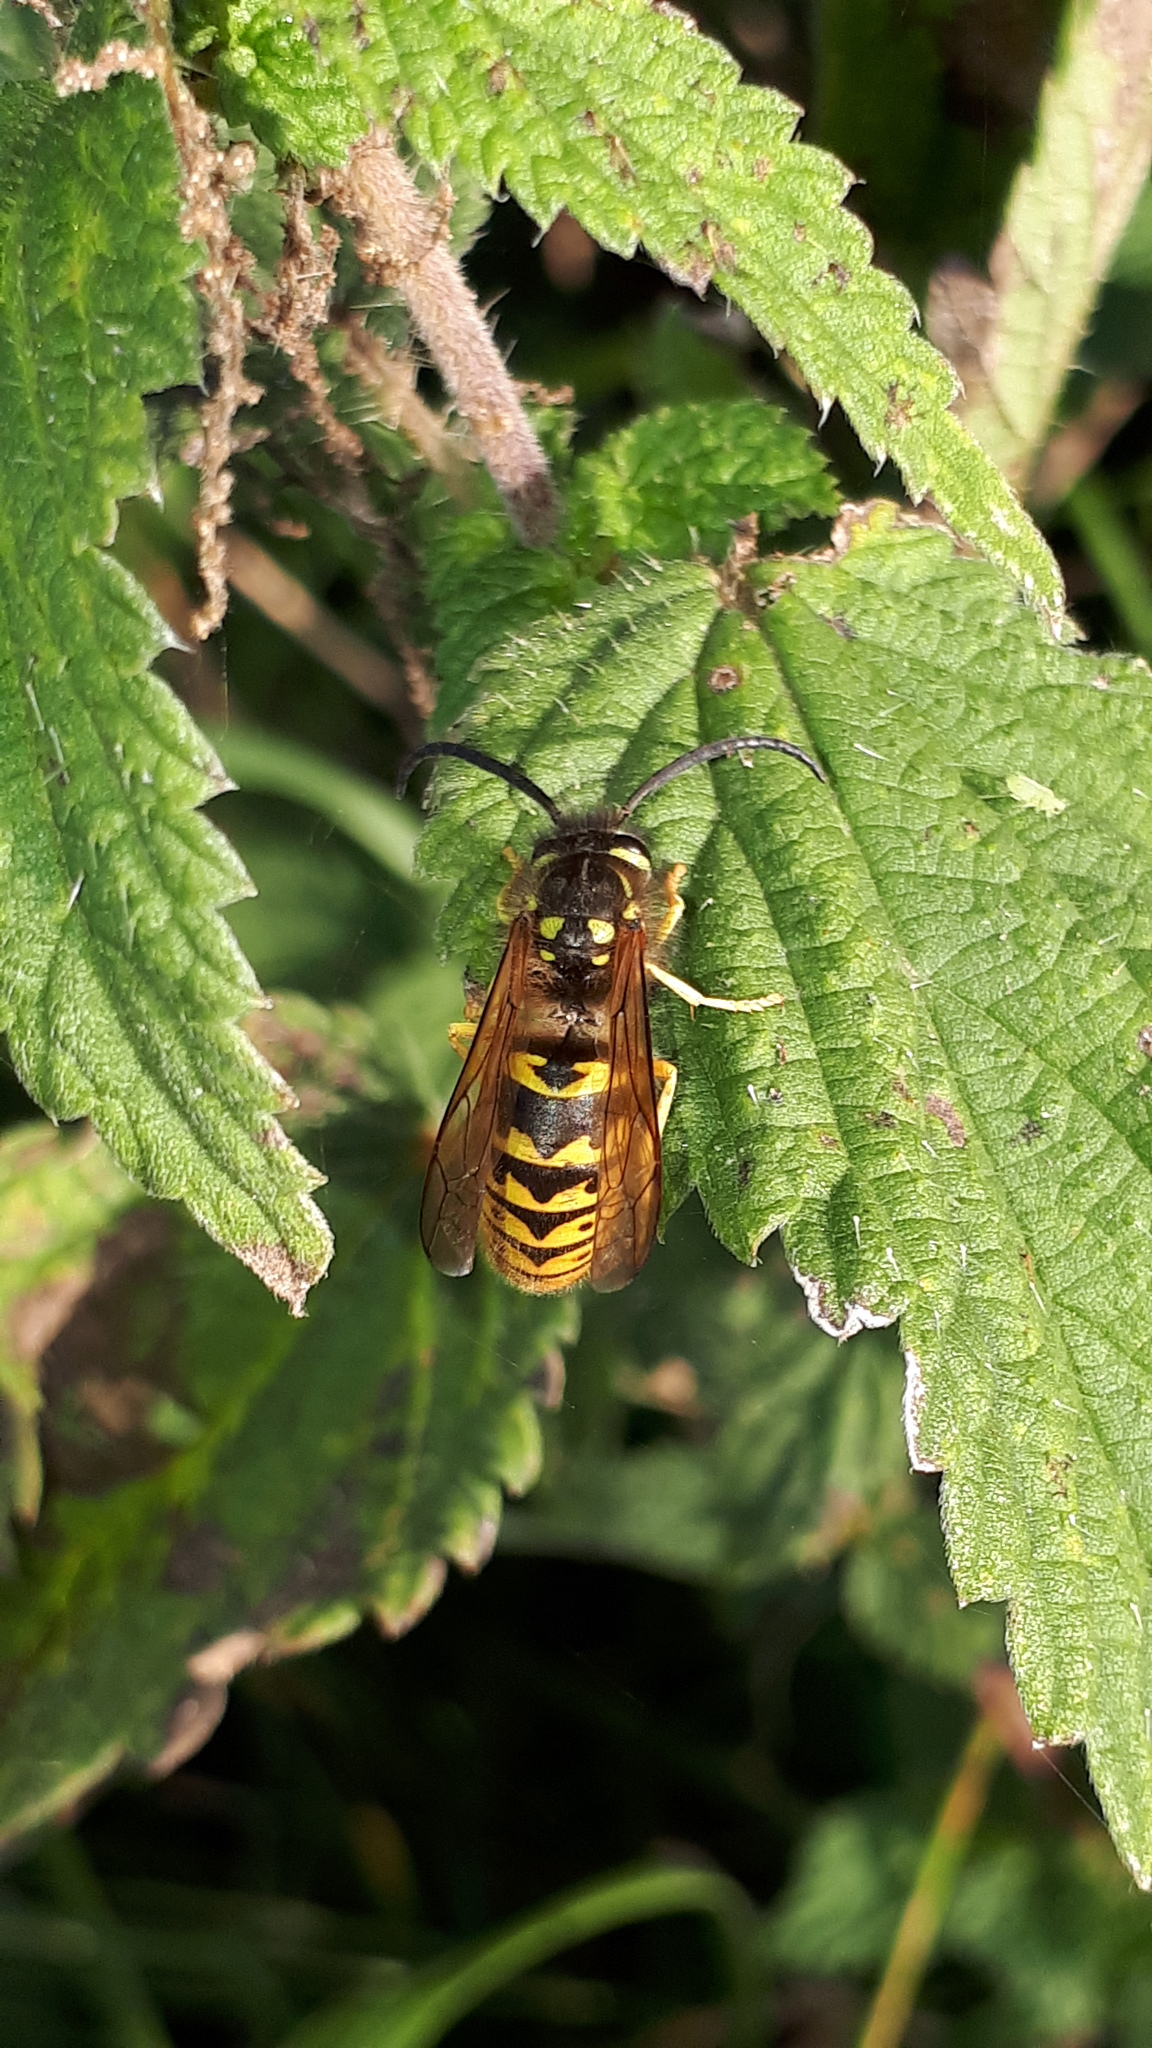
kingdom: Animalia
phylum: Arthropoda
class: Insecta
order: Hymenoptera
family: Vespidae
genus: Vespula
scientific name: Vespula germanica
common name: German wasp
